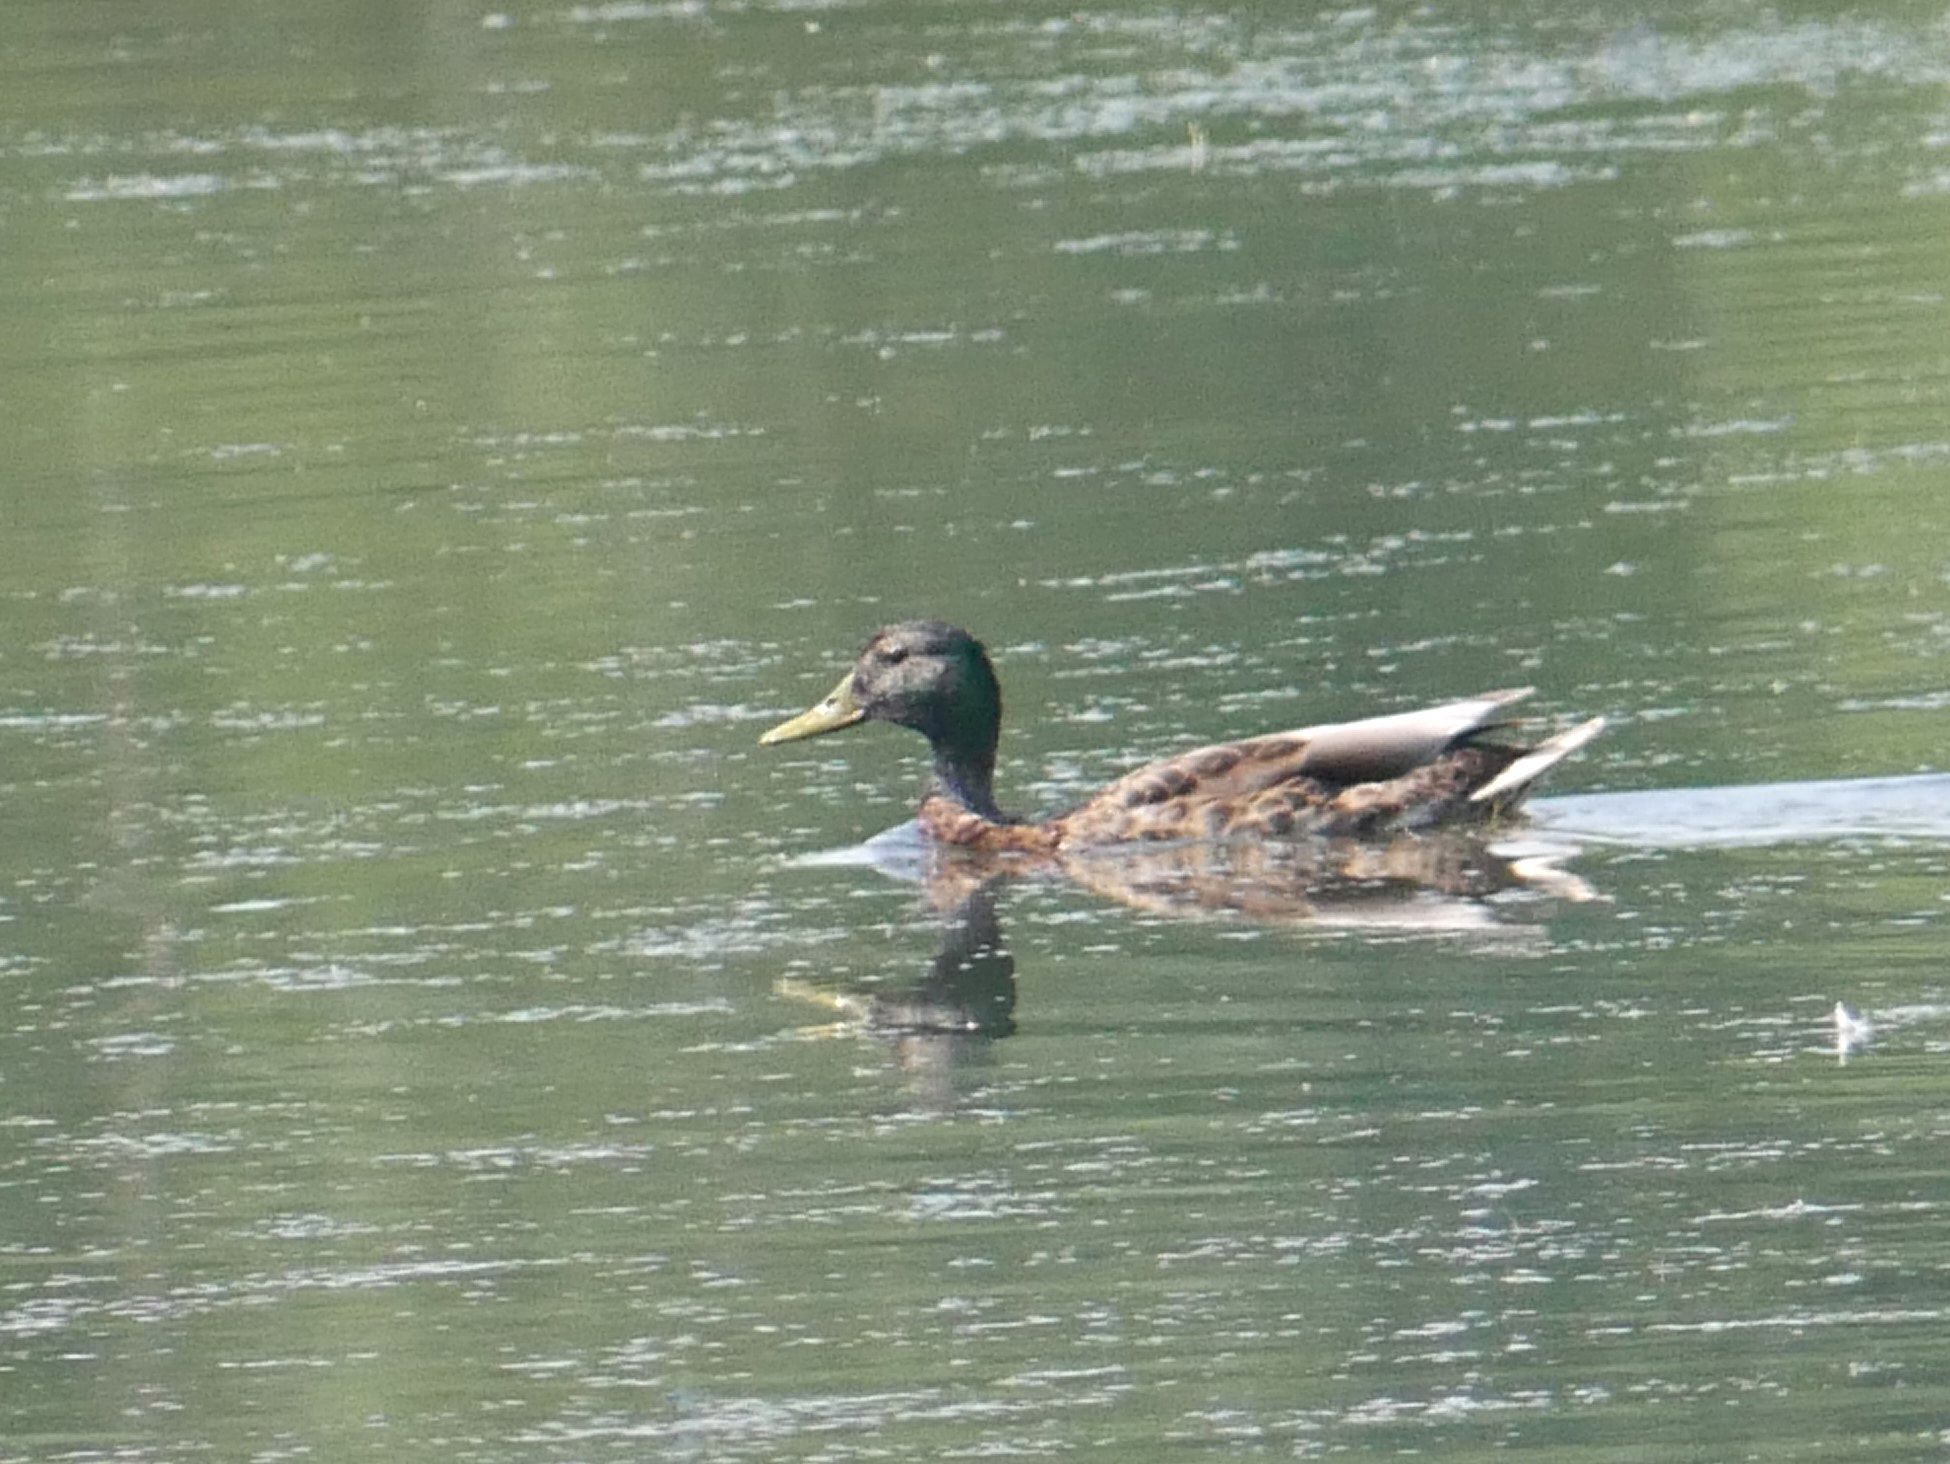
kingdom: Animalia
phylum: Chordata
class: Aves
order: Anseriformes
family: Anatidae
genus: Anas
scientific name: Anas platyrhynchos
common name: Mallard
